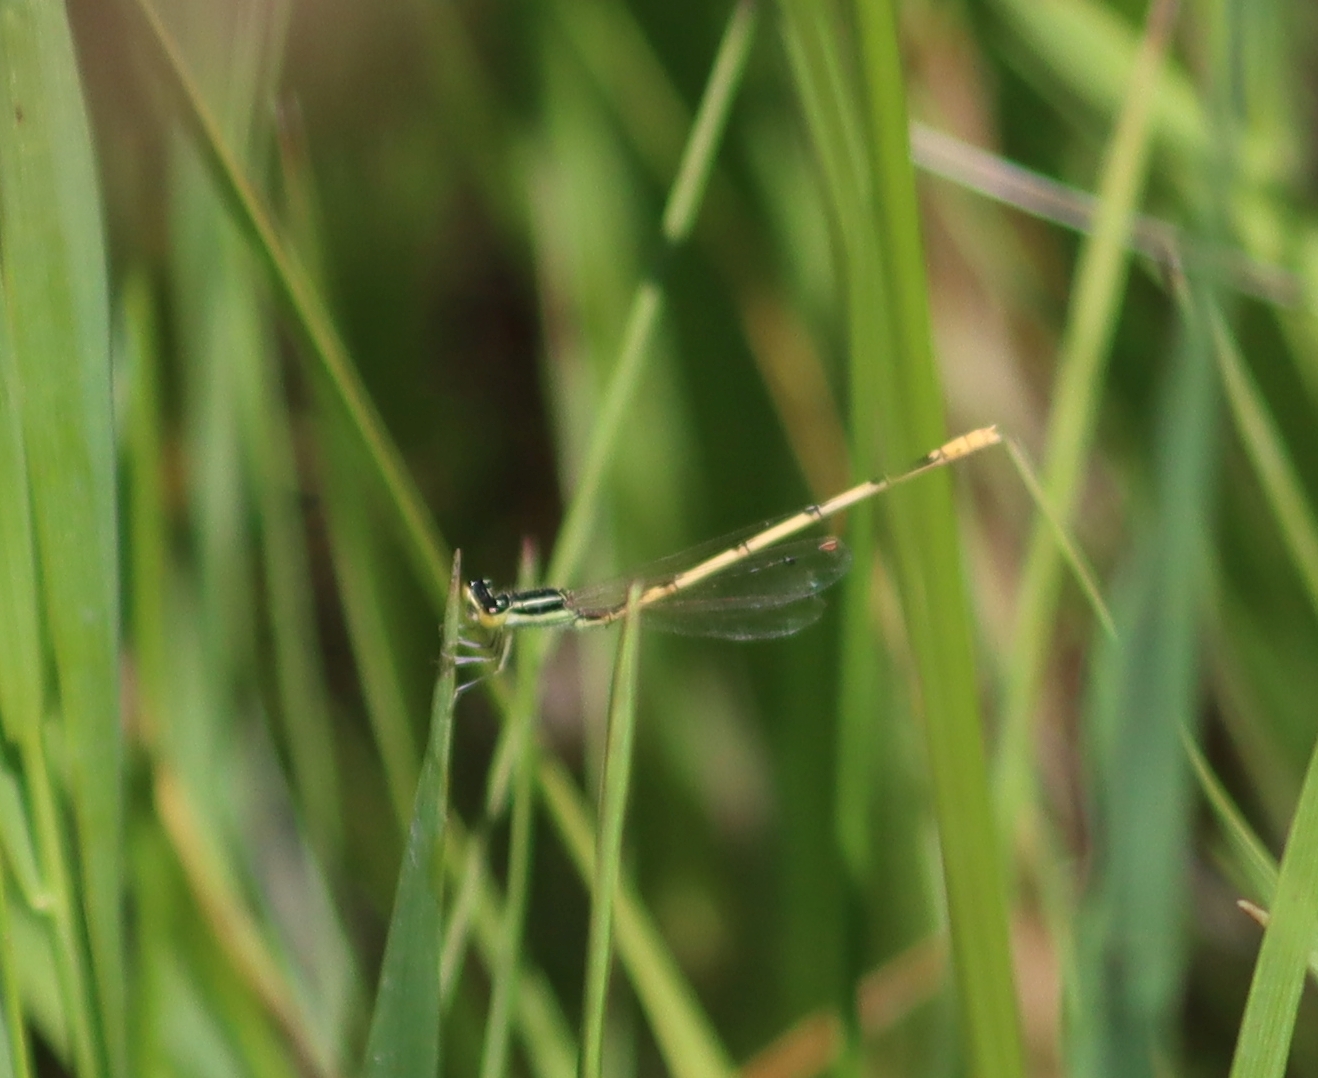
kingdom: Animalia
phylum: Arthropoda
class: Insecta
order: Odonata
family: Coenagrionidae
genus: Ischnura
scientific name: Ischnura hastata
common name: Citrine forktail
